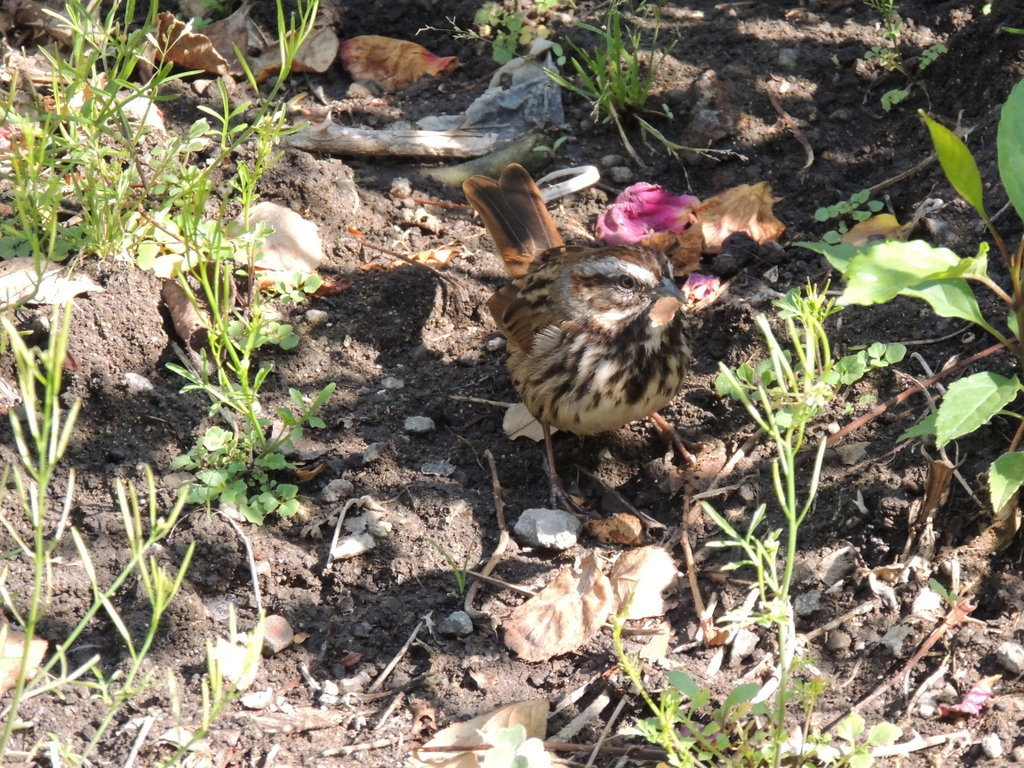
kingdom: Animalia
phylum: Chordata
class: Aves
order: Passeriformes
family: Passerellidae
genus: Melospiza
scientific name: Melospiza melodia
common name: Song sparrow
